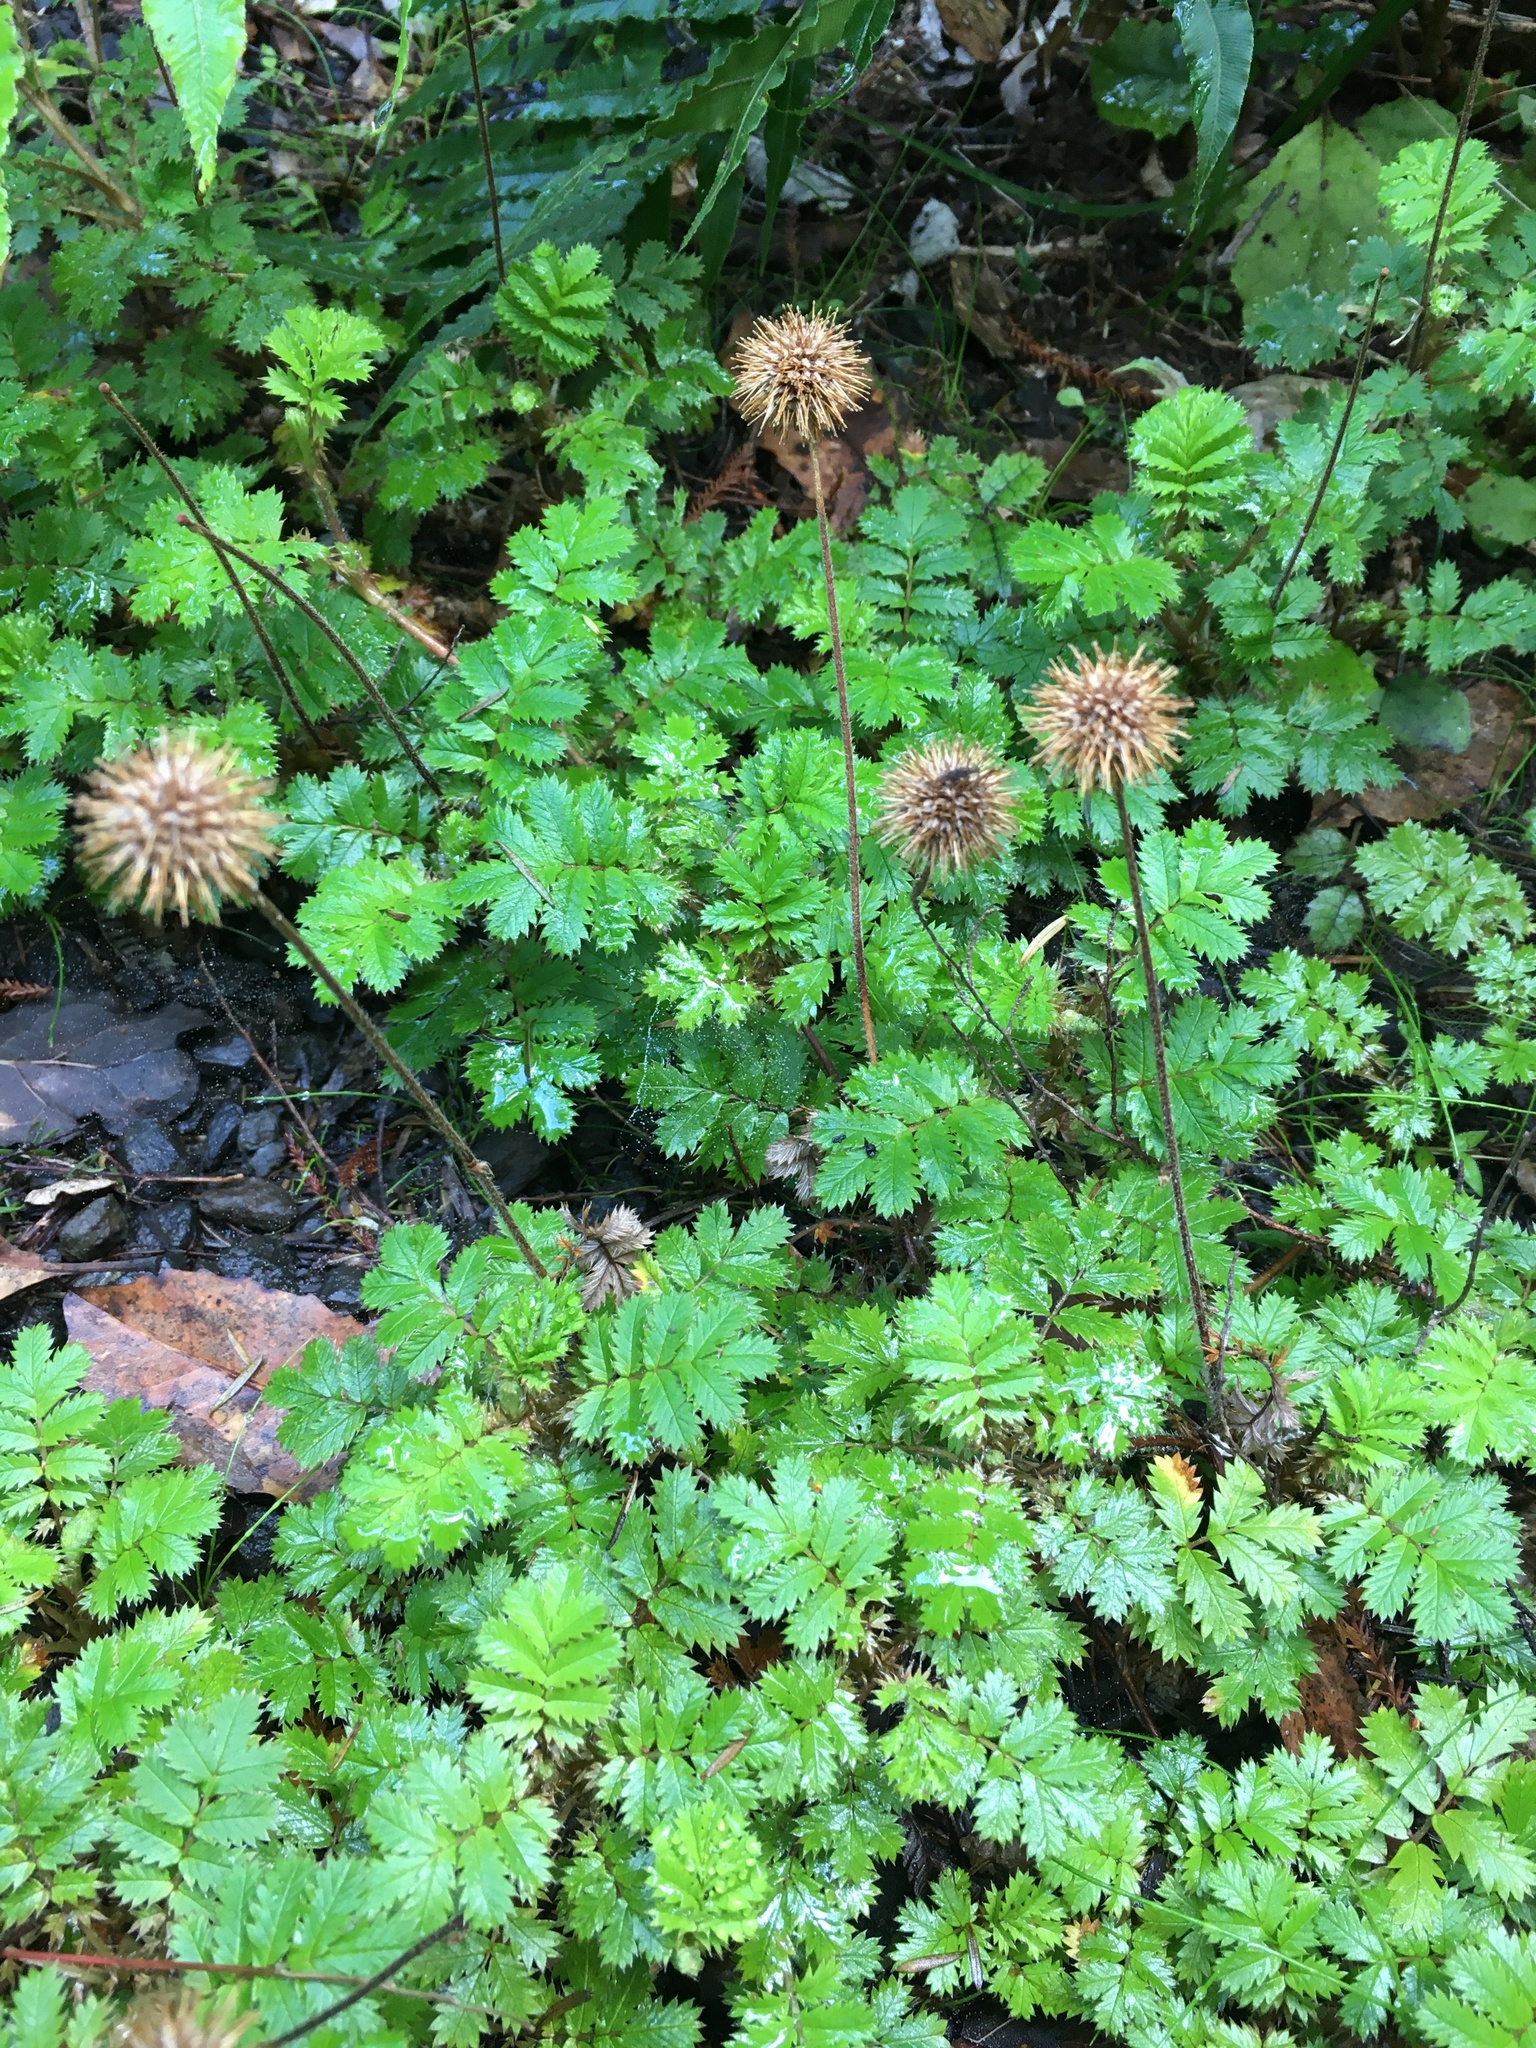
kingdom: Plantae
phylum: Tracheophyta
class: Magnoliopsida
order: Rosales
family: Rosaceae
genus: Acaena
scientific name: Acaena anserinifolia
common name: Bronze pirri-pirri-bur
